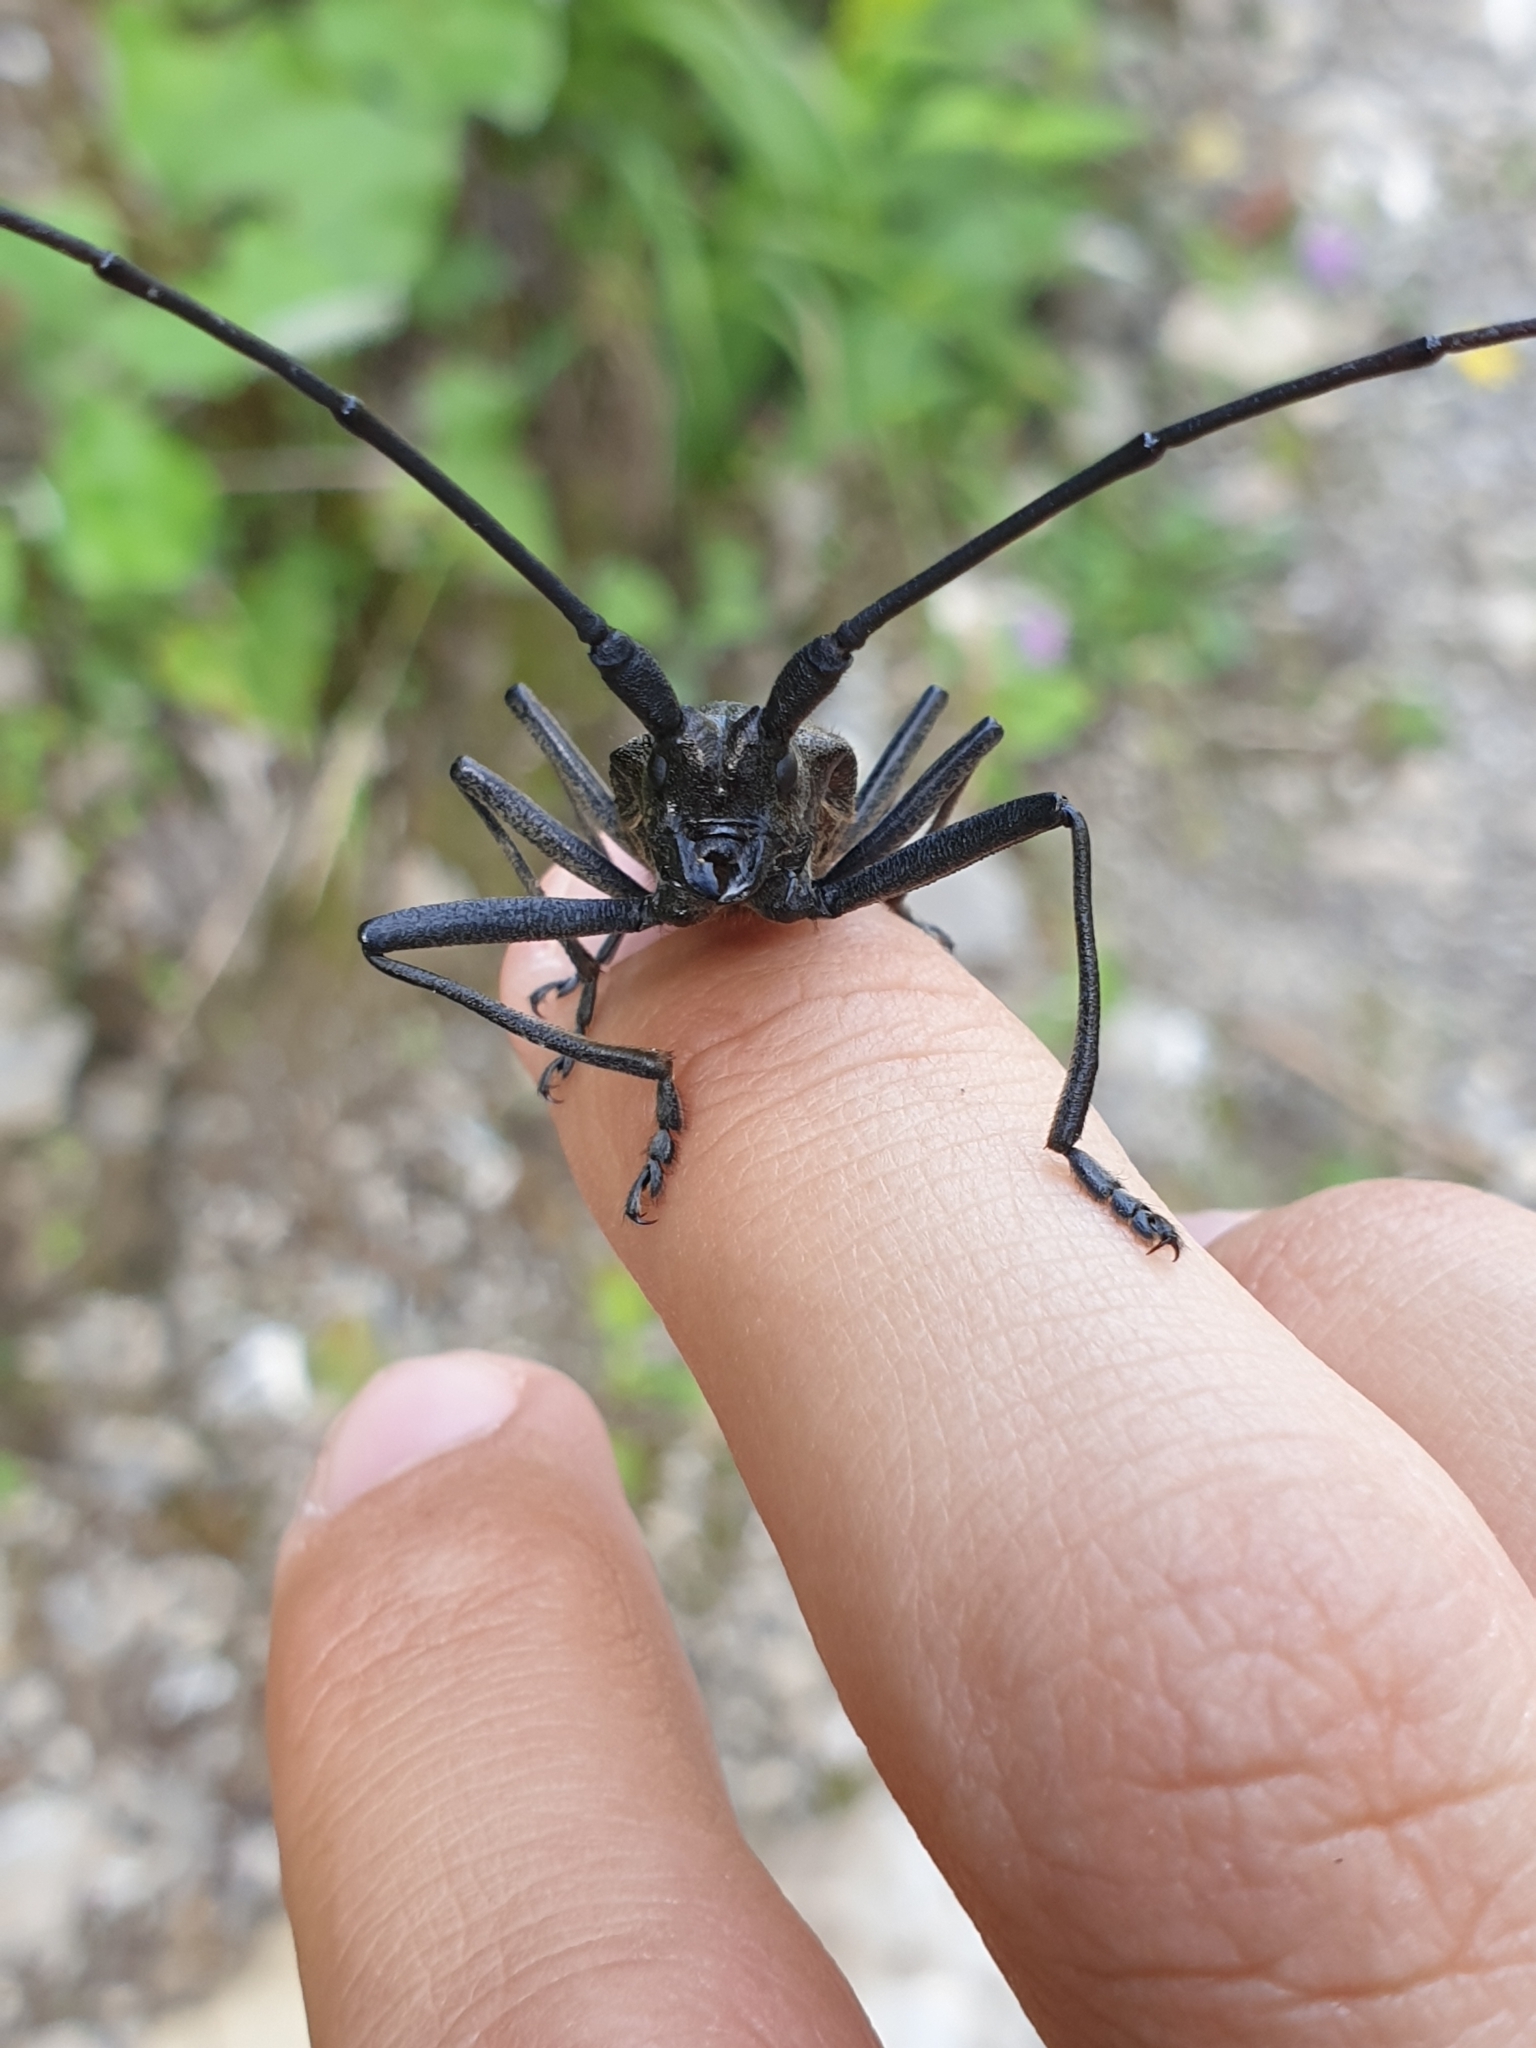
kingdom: Animalia
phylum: Arthropoda
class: Insecta
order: Coleoptera
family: Cerambycidae
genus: Monochamus
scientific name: Monochamus sartor
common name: Pine sawyer
